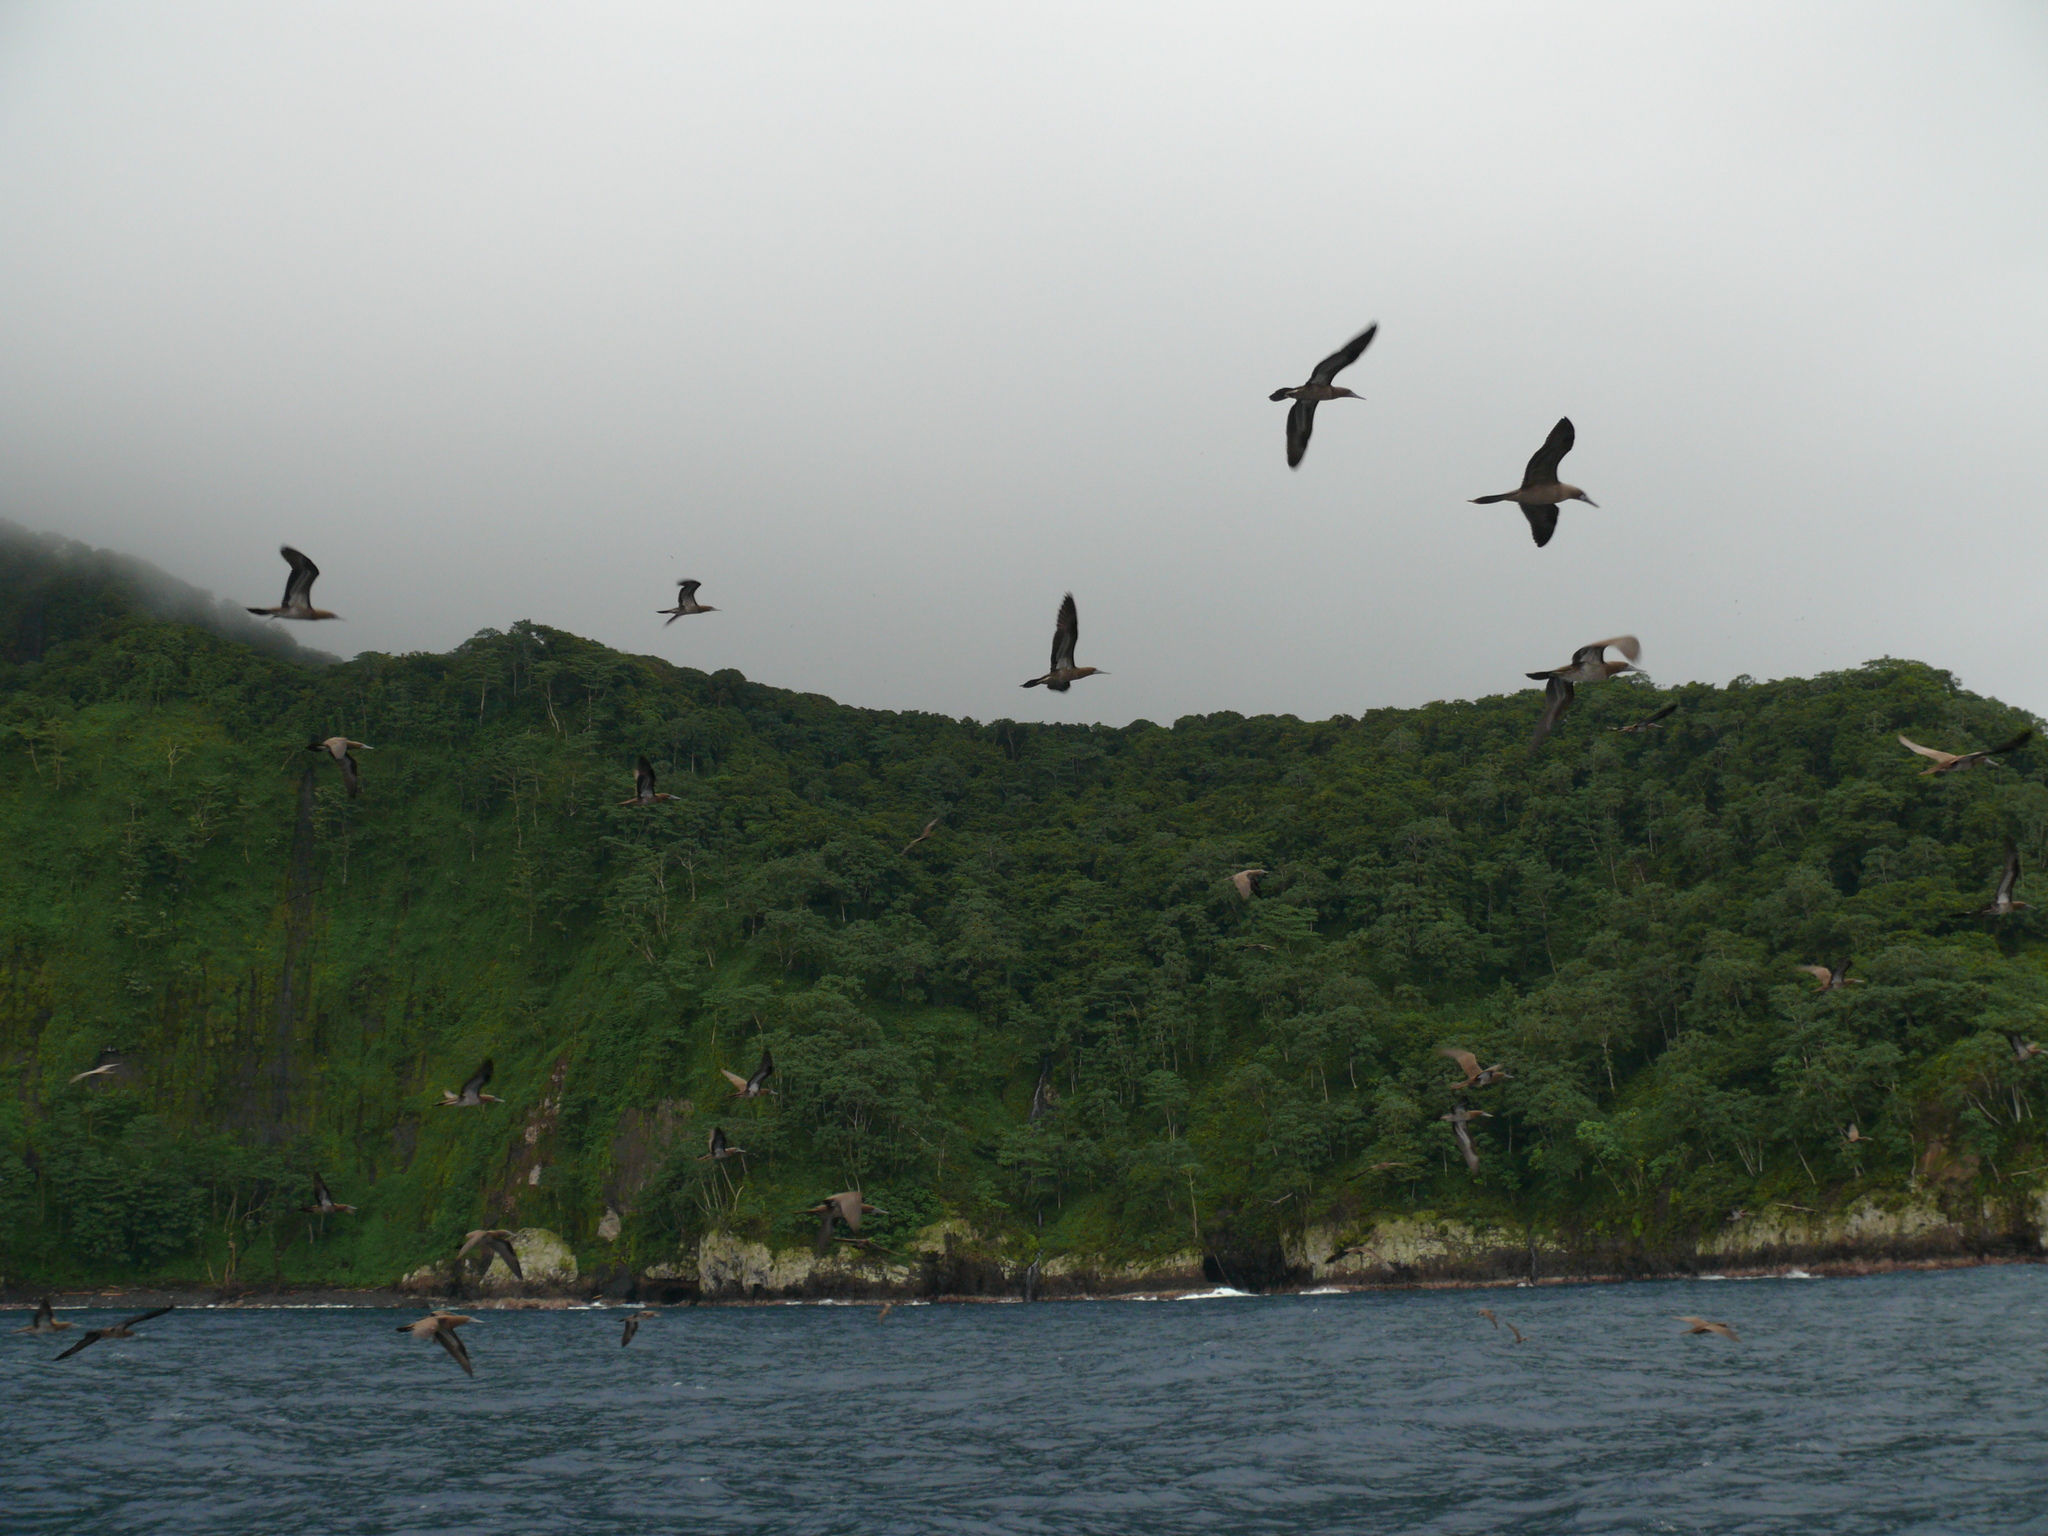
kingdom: Animalia
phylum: Chordata
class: Aves
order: Suliformes
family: Sulidae
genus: Sula
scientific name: Sula sula
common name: Red-footed booby
